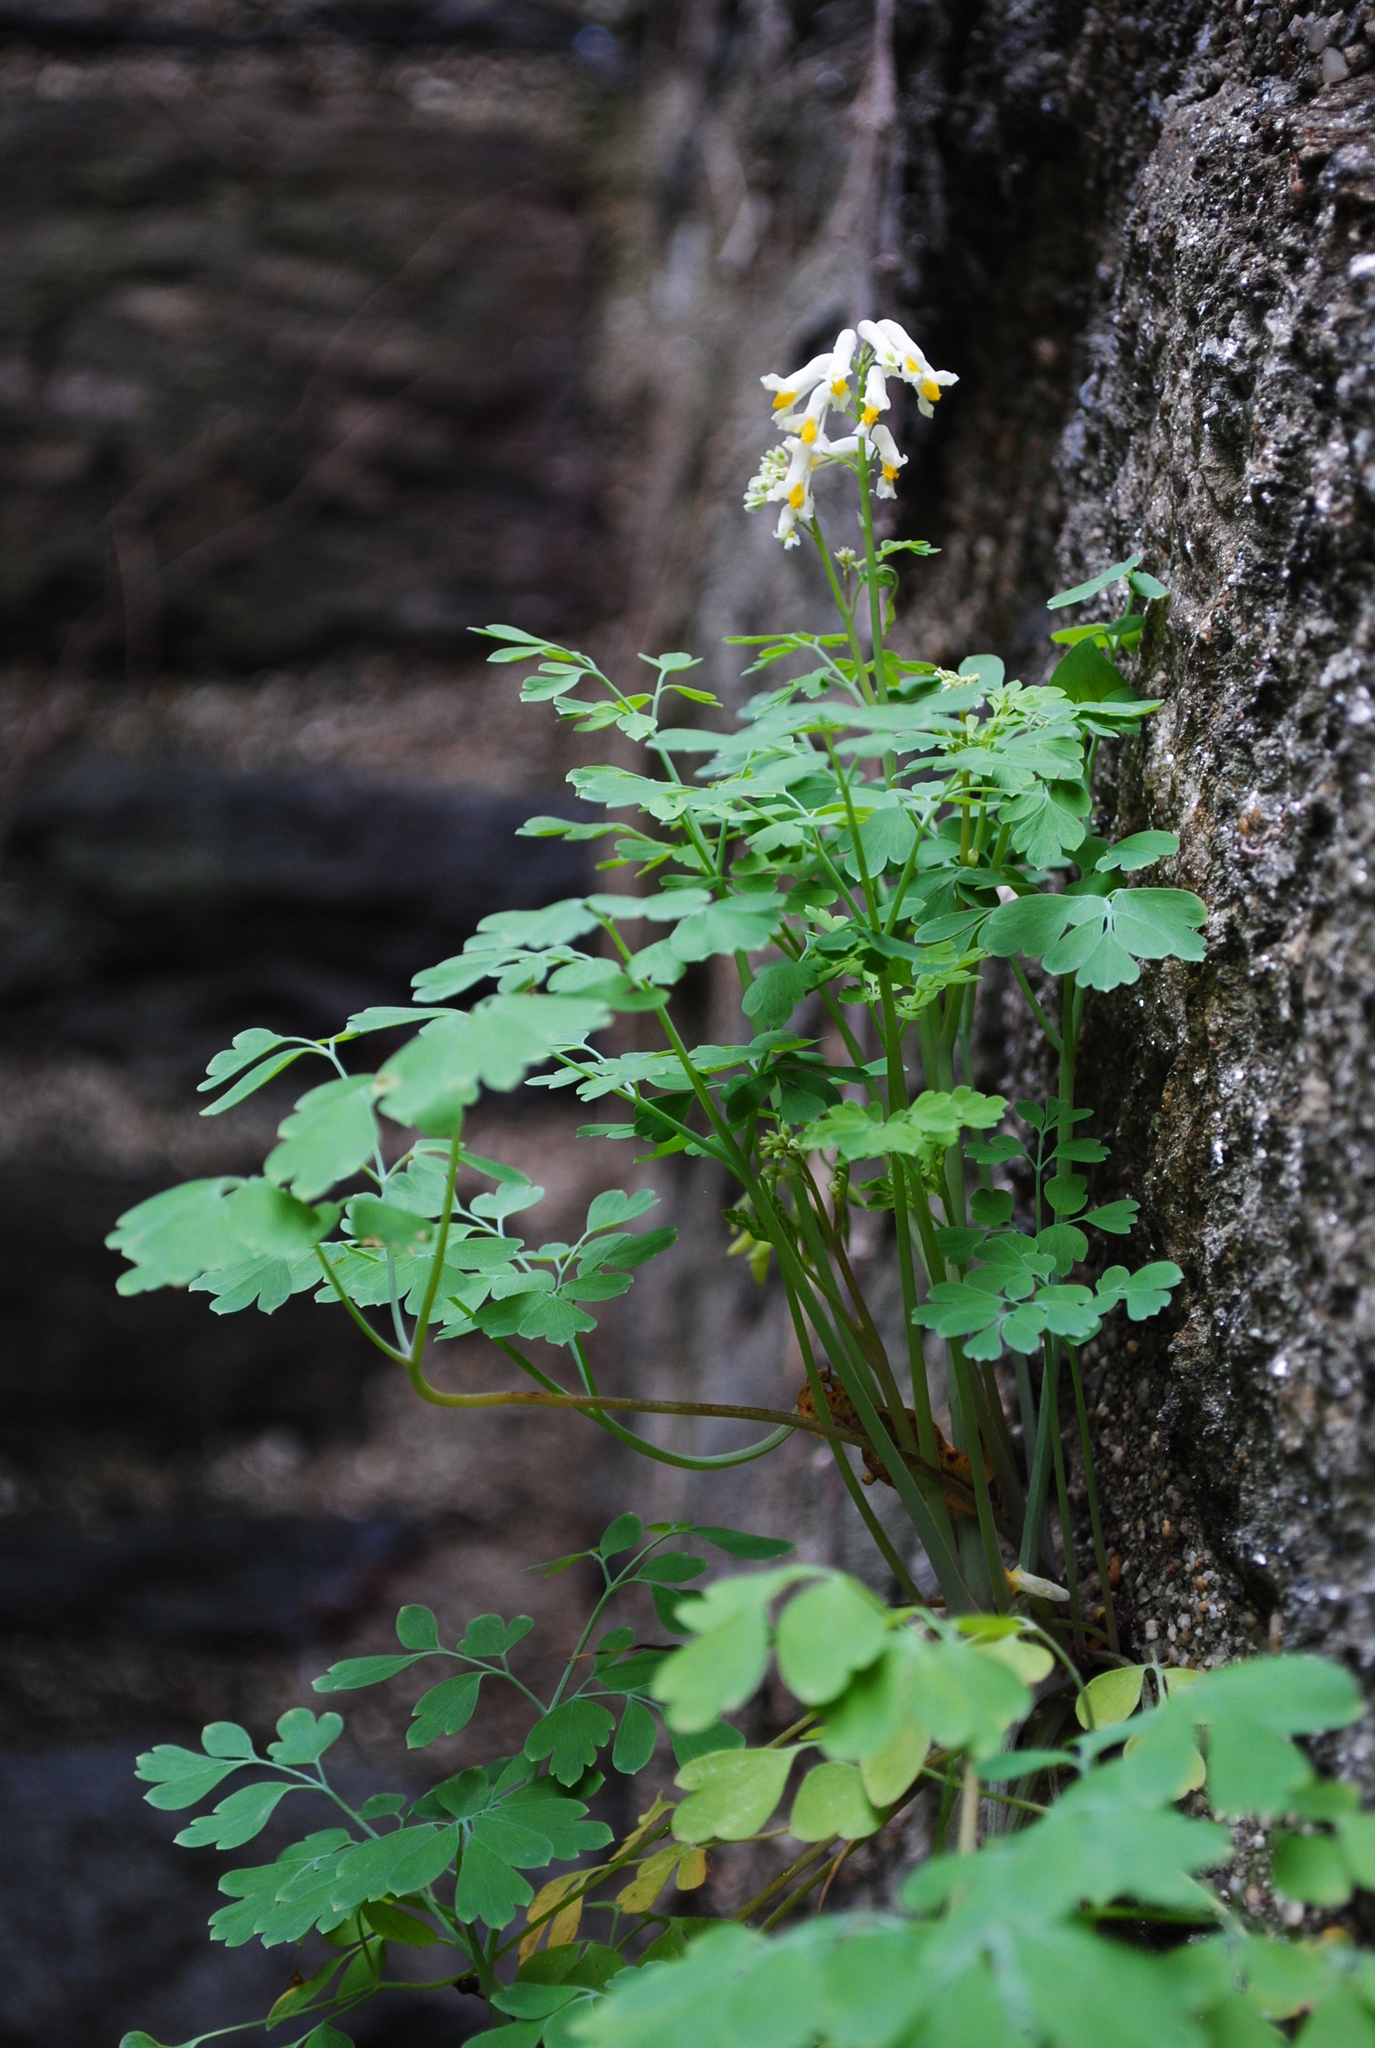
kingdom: Plantae
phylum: Tracheophyta
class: Magnoliopsida
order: Ranunculales
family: Papaveraceae
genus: Pseudofumaria
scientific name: Pseudofumaria alba
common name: Pale corydalis
